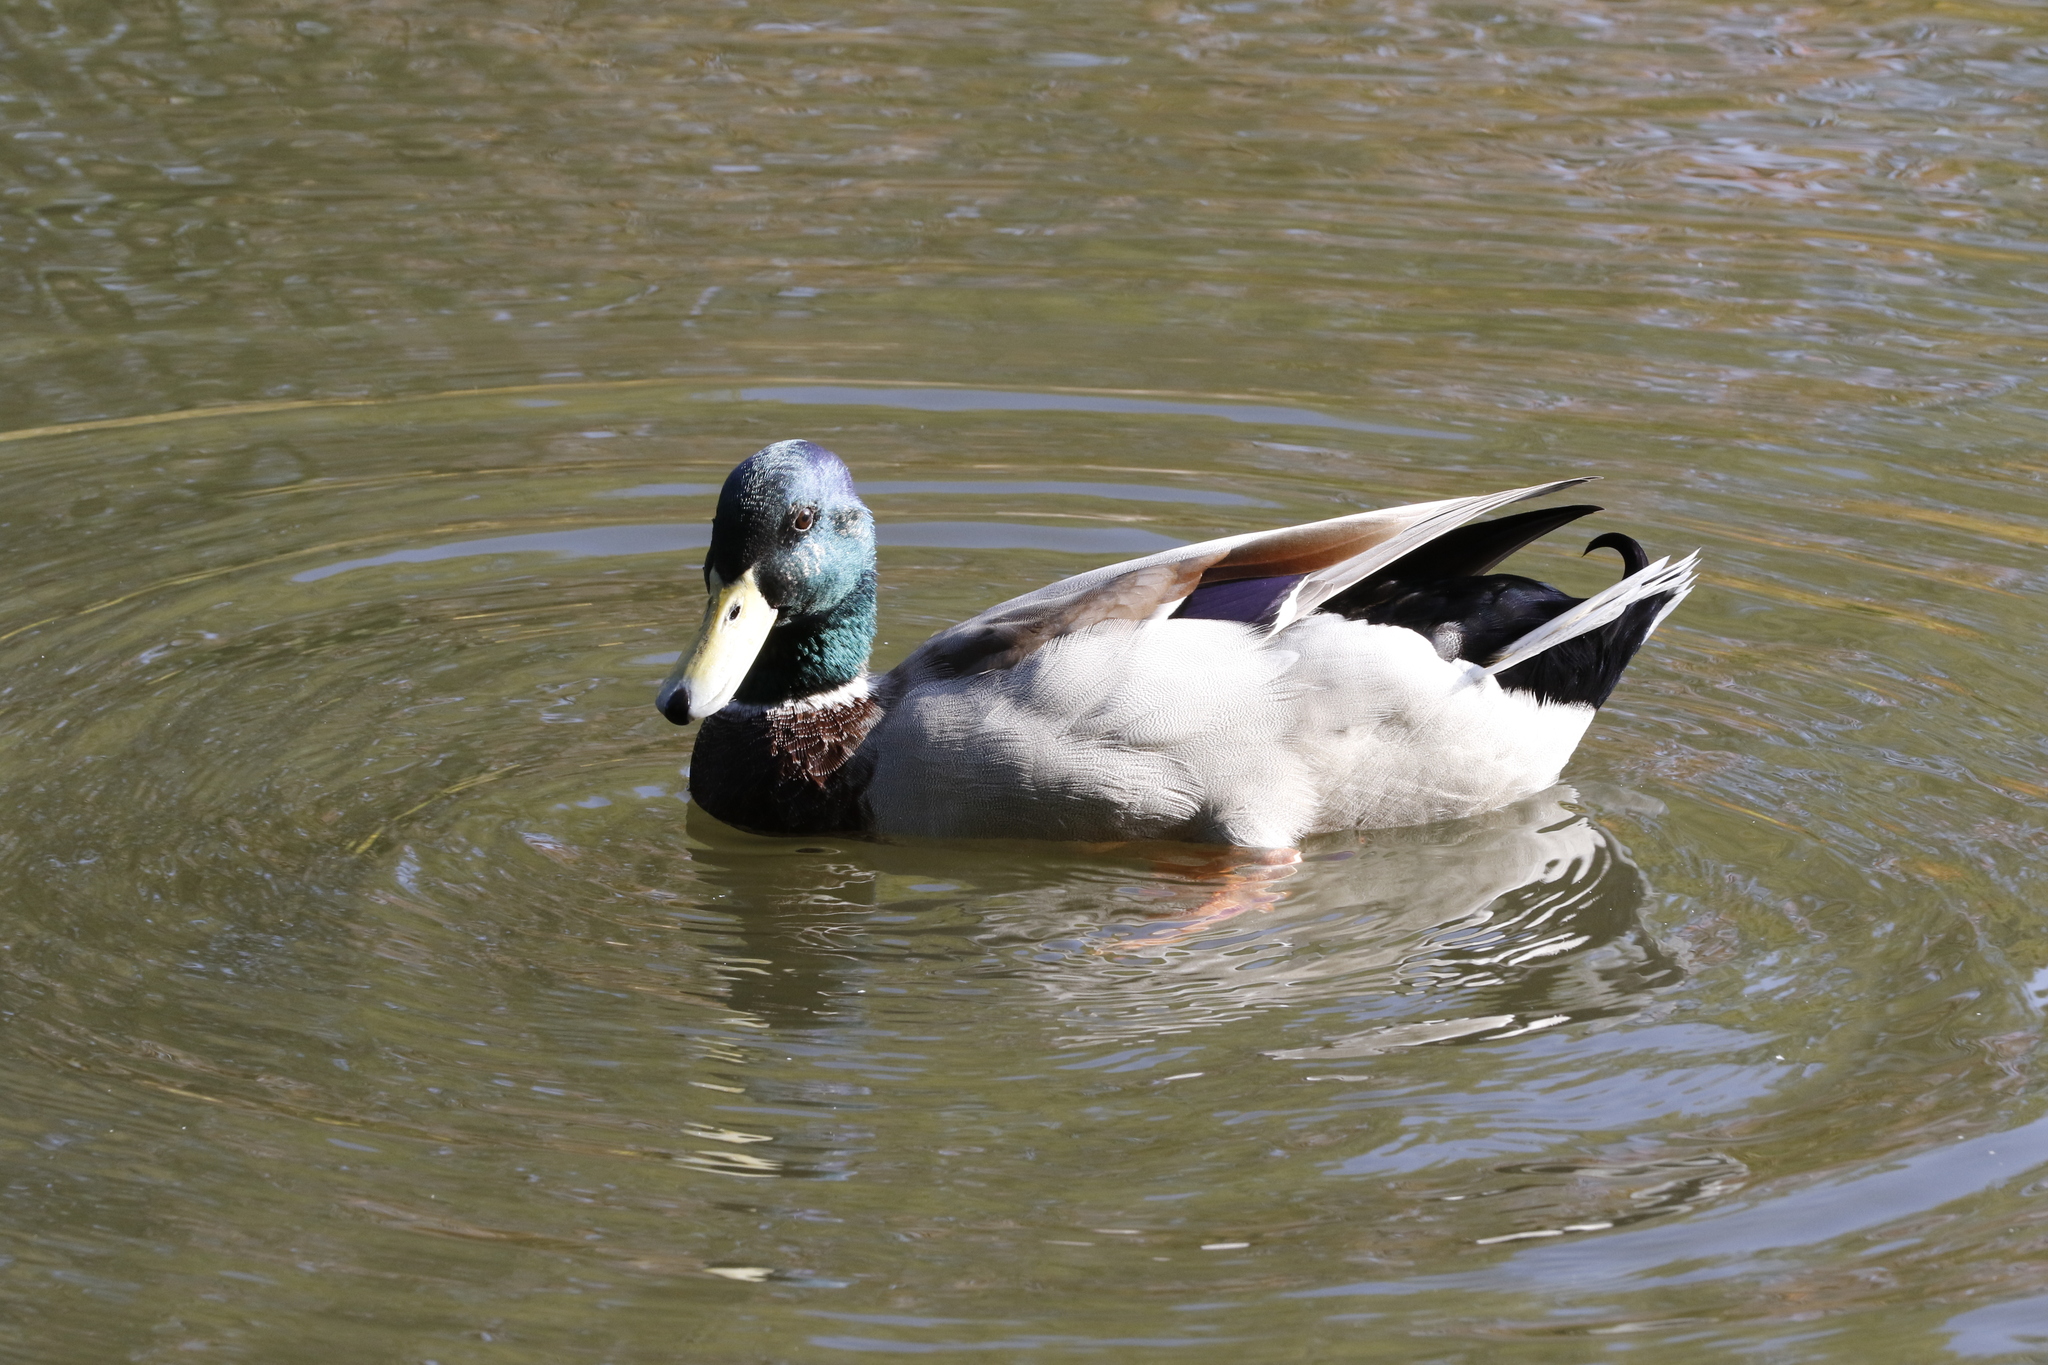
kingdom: Animalia
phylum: Chordata
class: Aves
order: Anseriformes
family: Anatidae
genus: Anas
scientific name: Anas platyrhynchos
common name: Mallard
